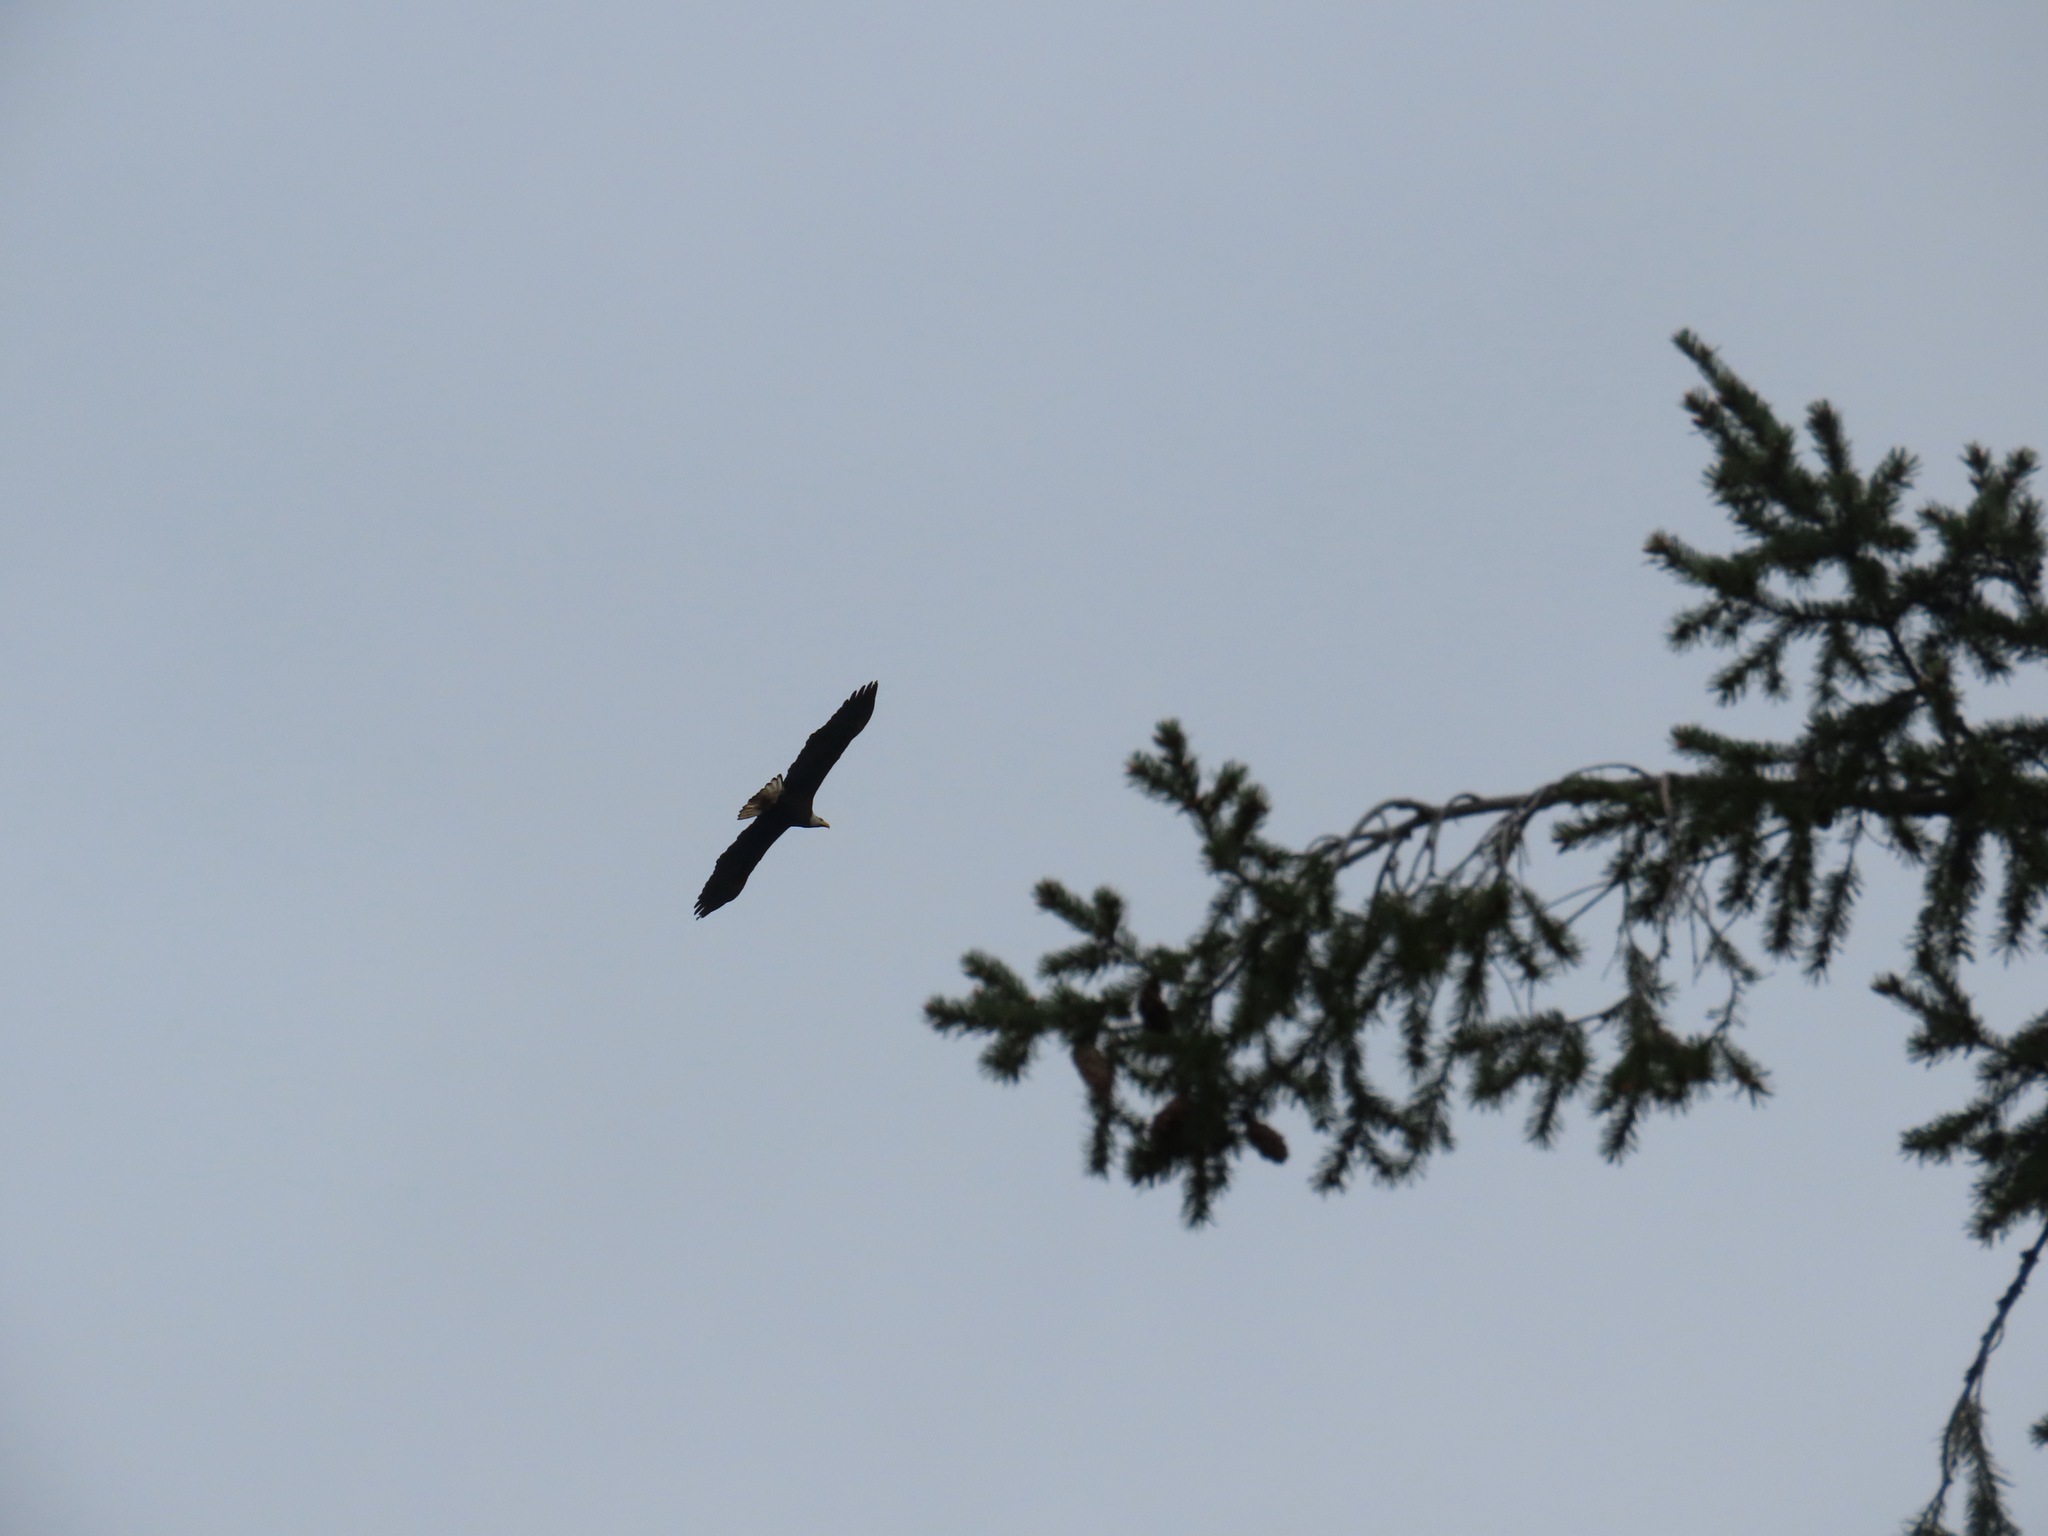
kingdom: Animalia
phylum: Chordata
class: Aves
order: Accipitriformes
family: Accipitridae
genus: Haliaeetus
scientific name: Haliaeetus leucocephalus
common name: Bald eagle
